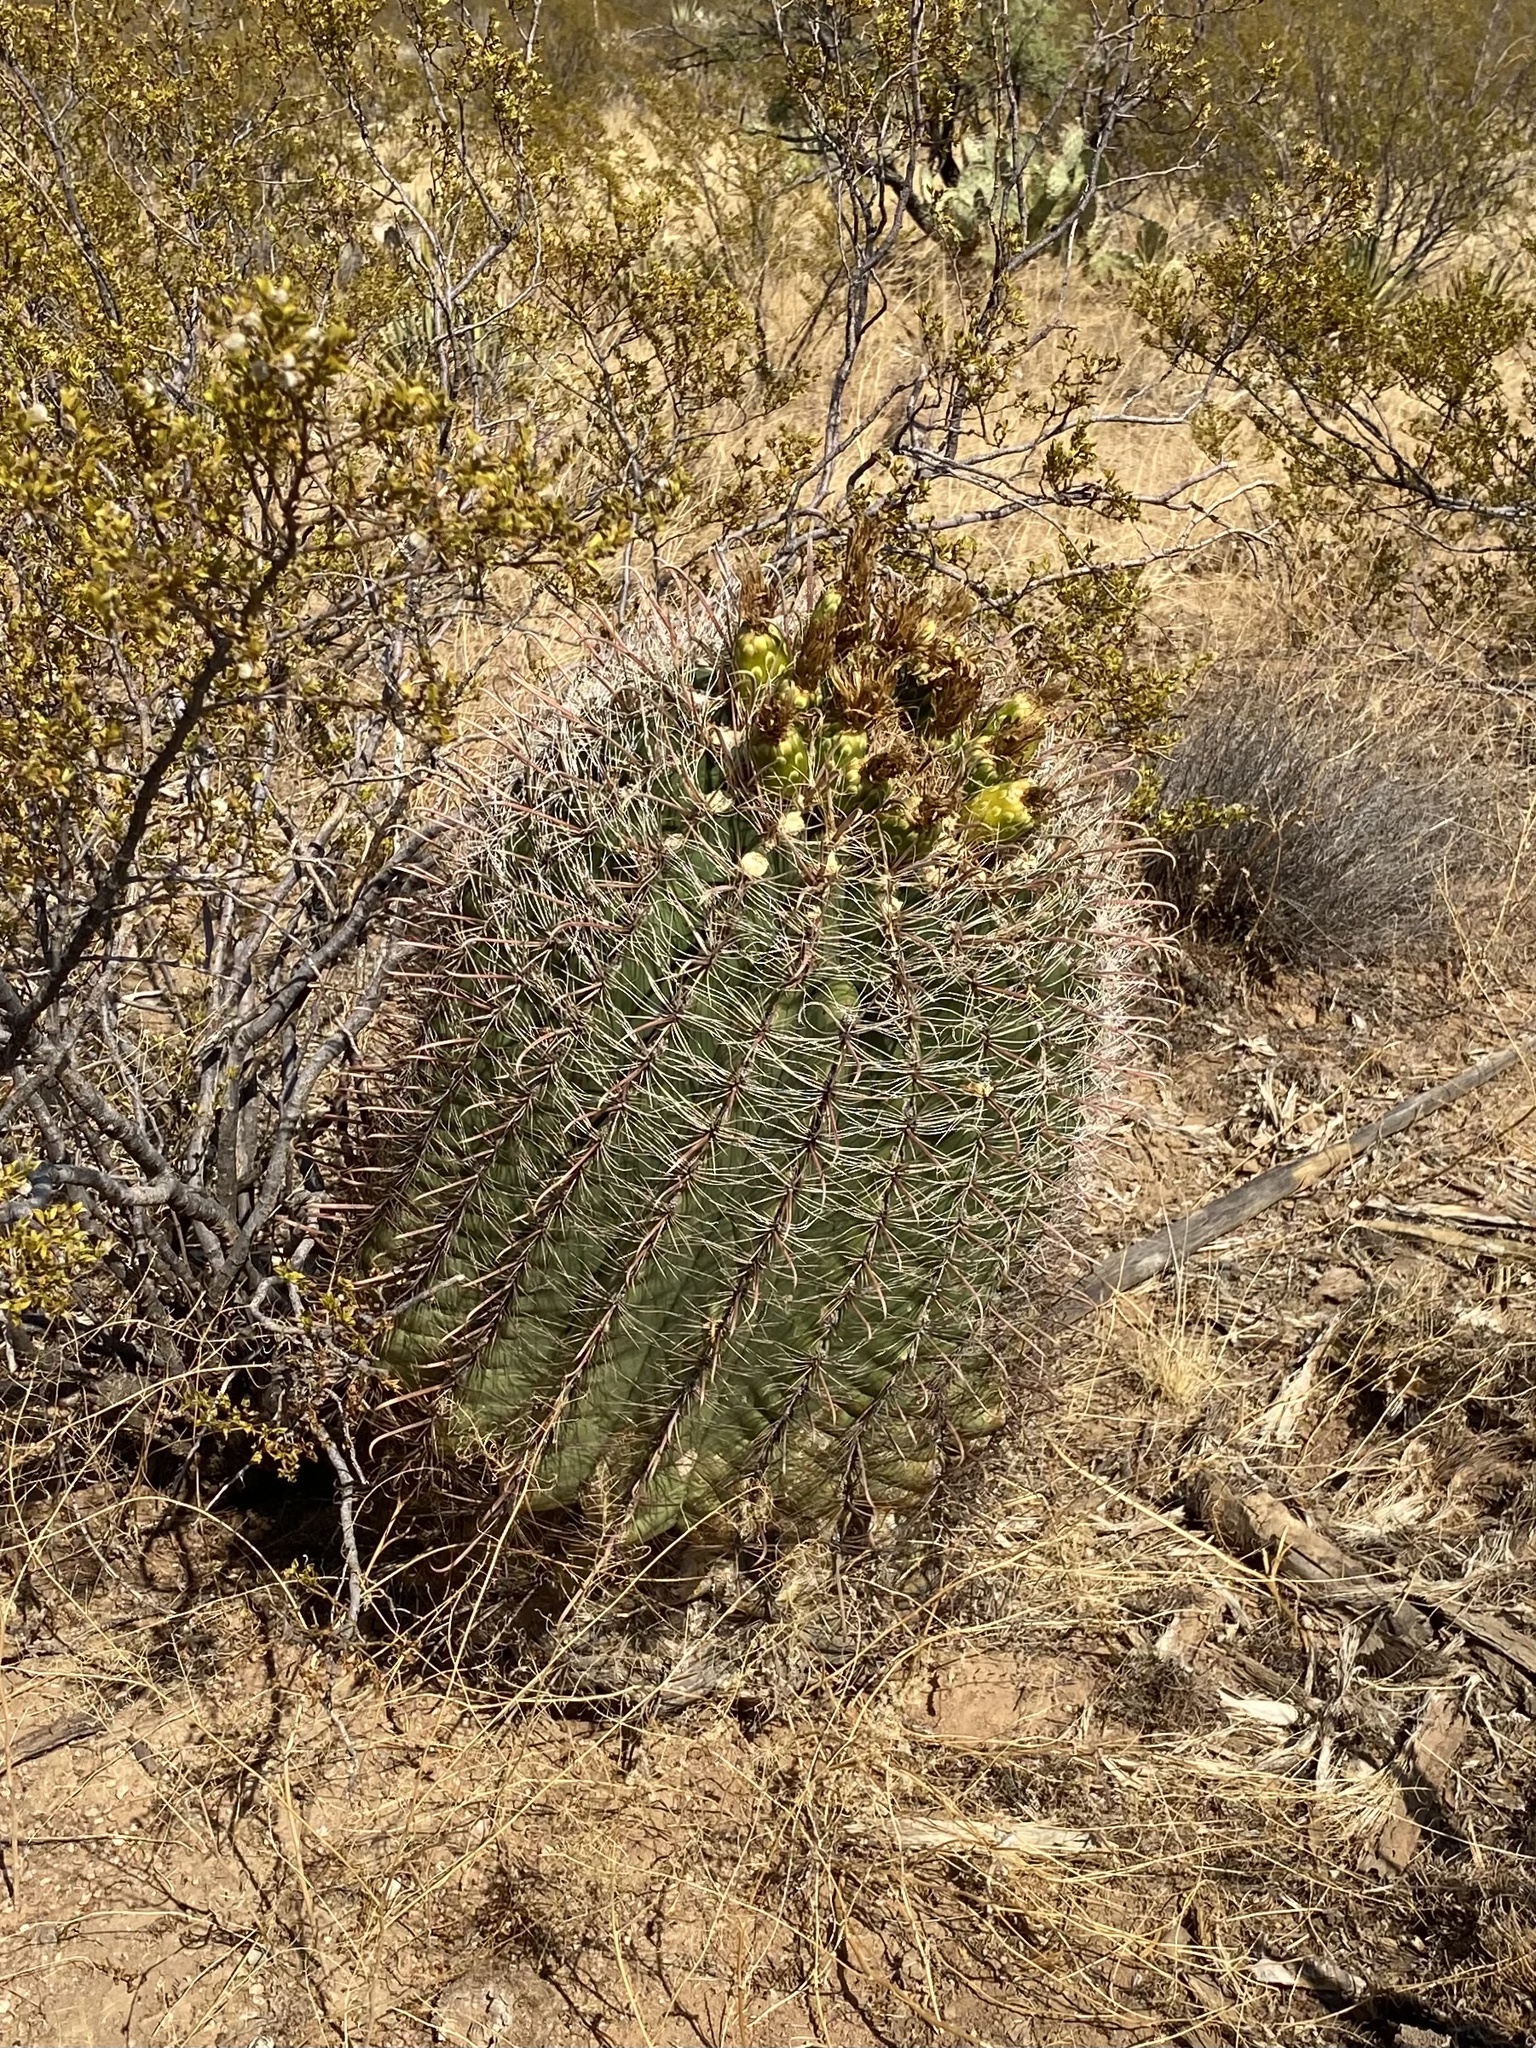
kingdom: Plantae
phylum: Tracheophyta
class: Magnoliopsida
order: Caryophyllales
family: Cactaceae
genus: Ferocactus
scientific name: Ferocactus wislizeni
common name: Candy barrel cactus
